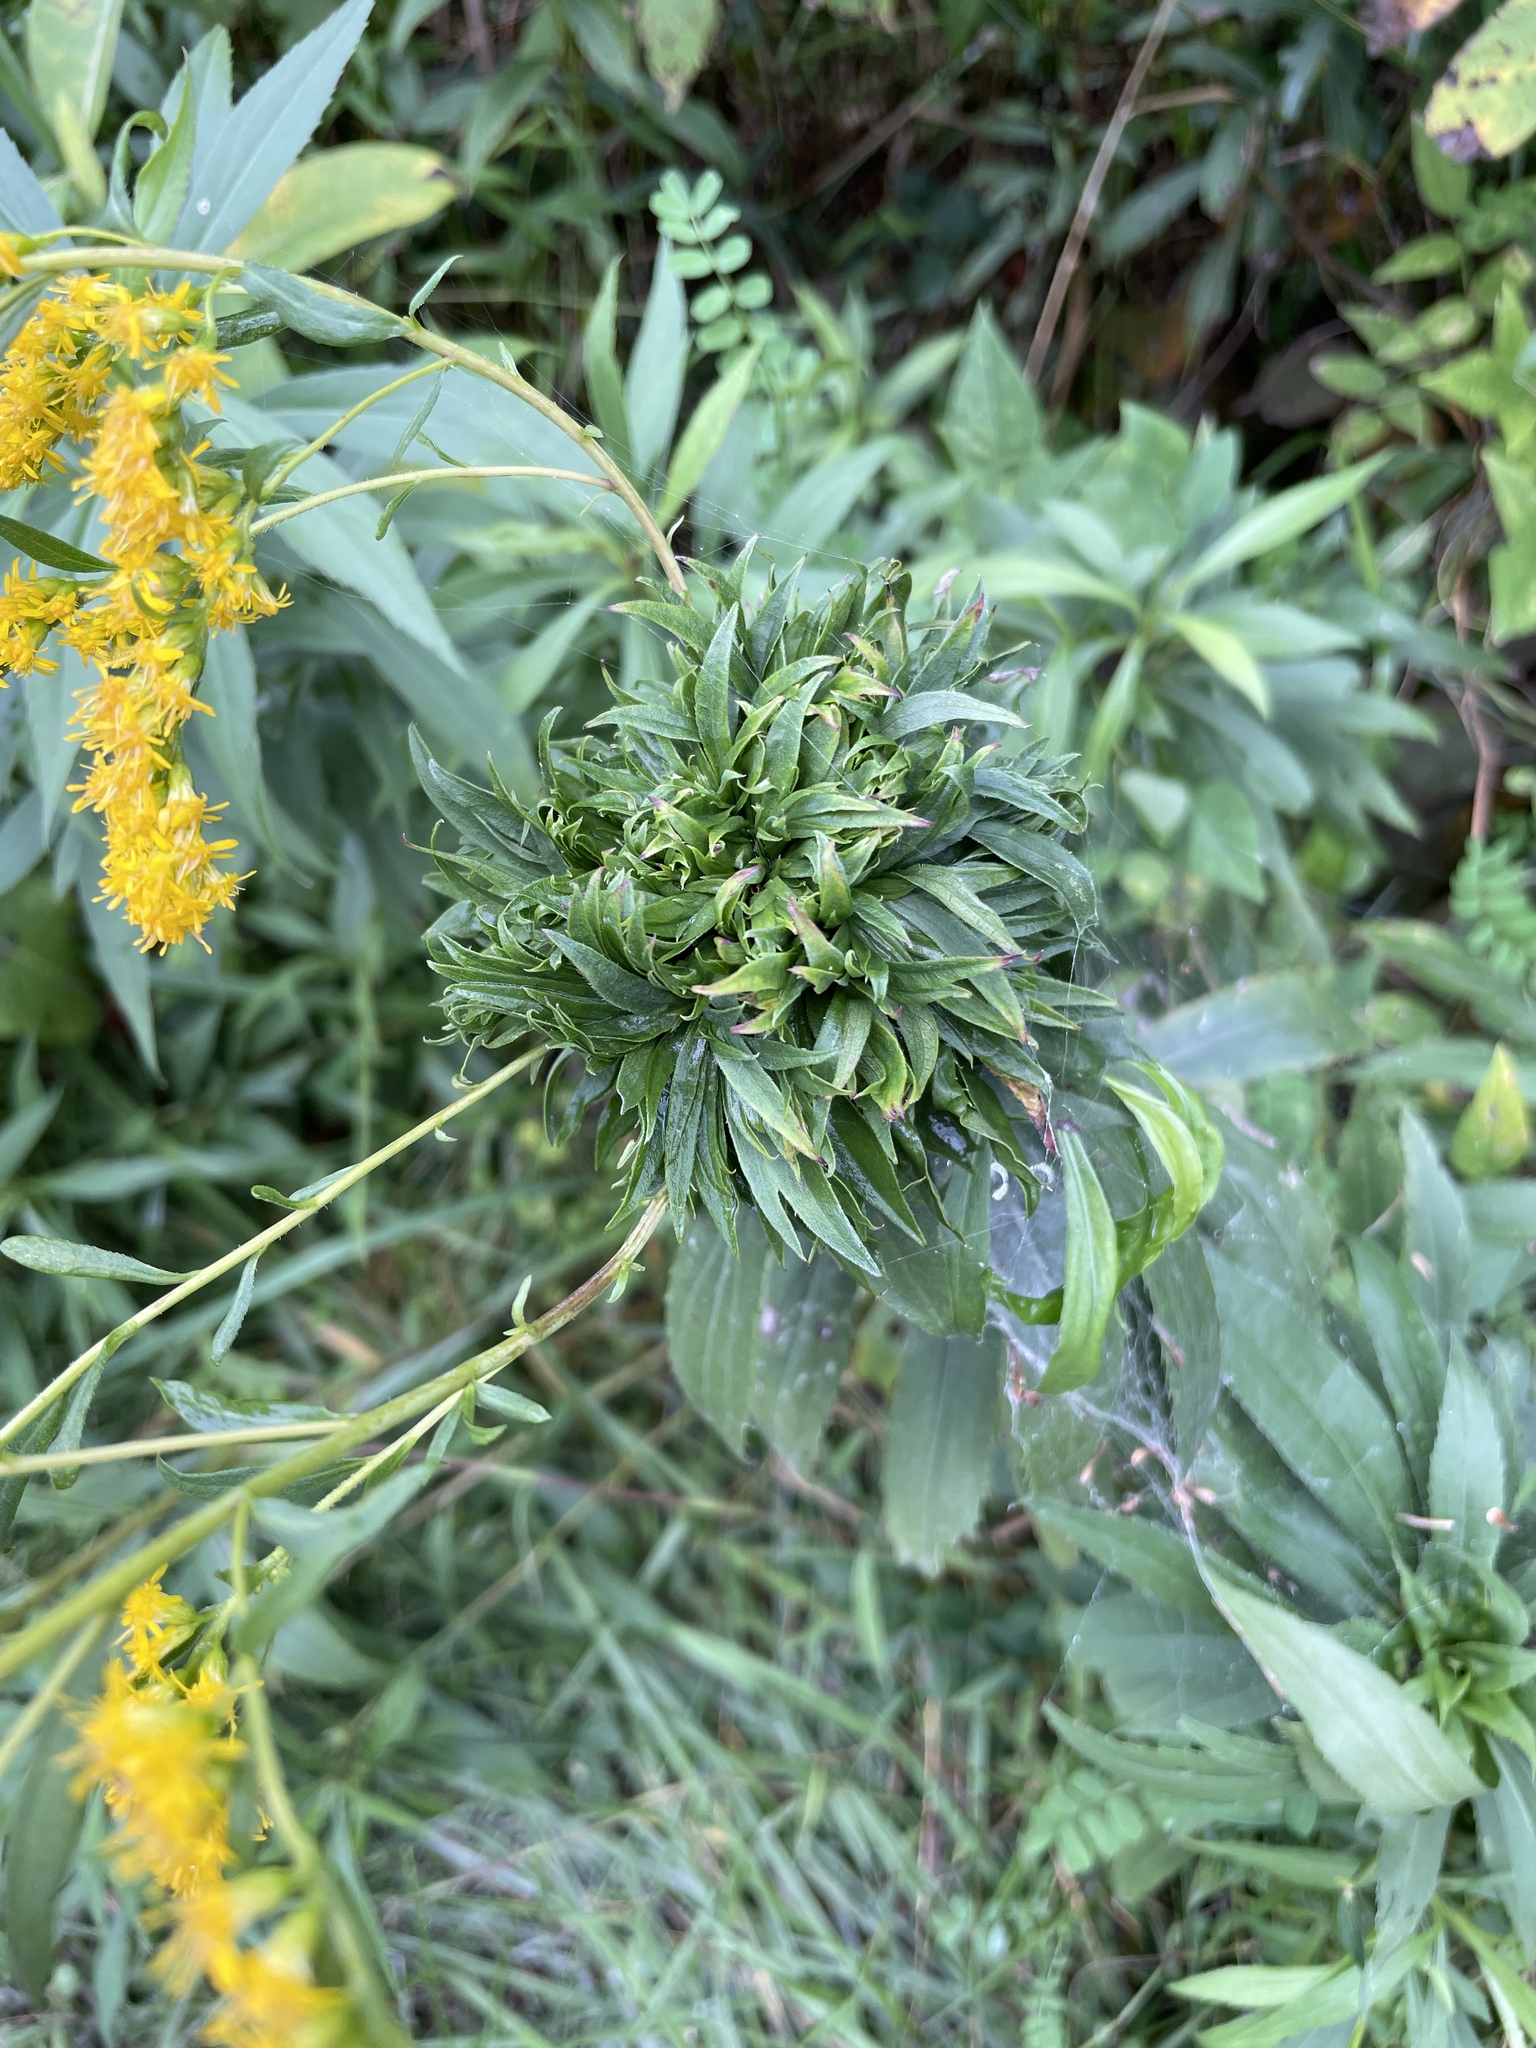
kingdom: Animalia
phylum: Arthropoda
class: Insecta
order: Diptera
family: Cecidomyiidae
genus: Rhopalomyia
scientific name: Rhopalomyia solidaginis
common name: Goldenrod bunch gall midge
